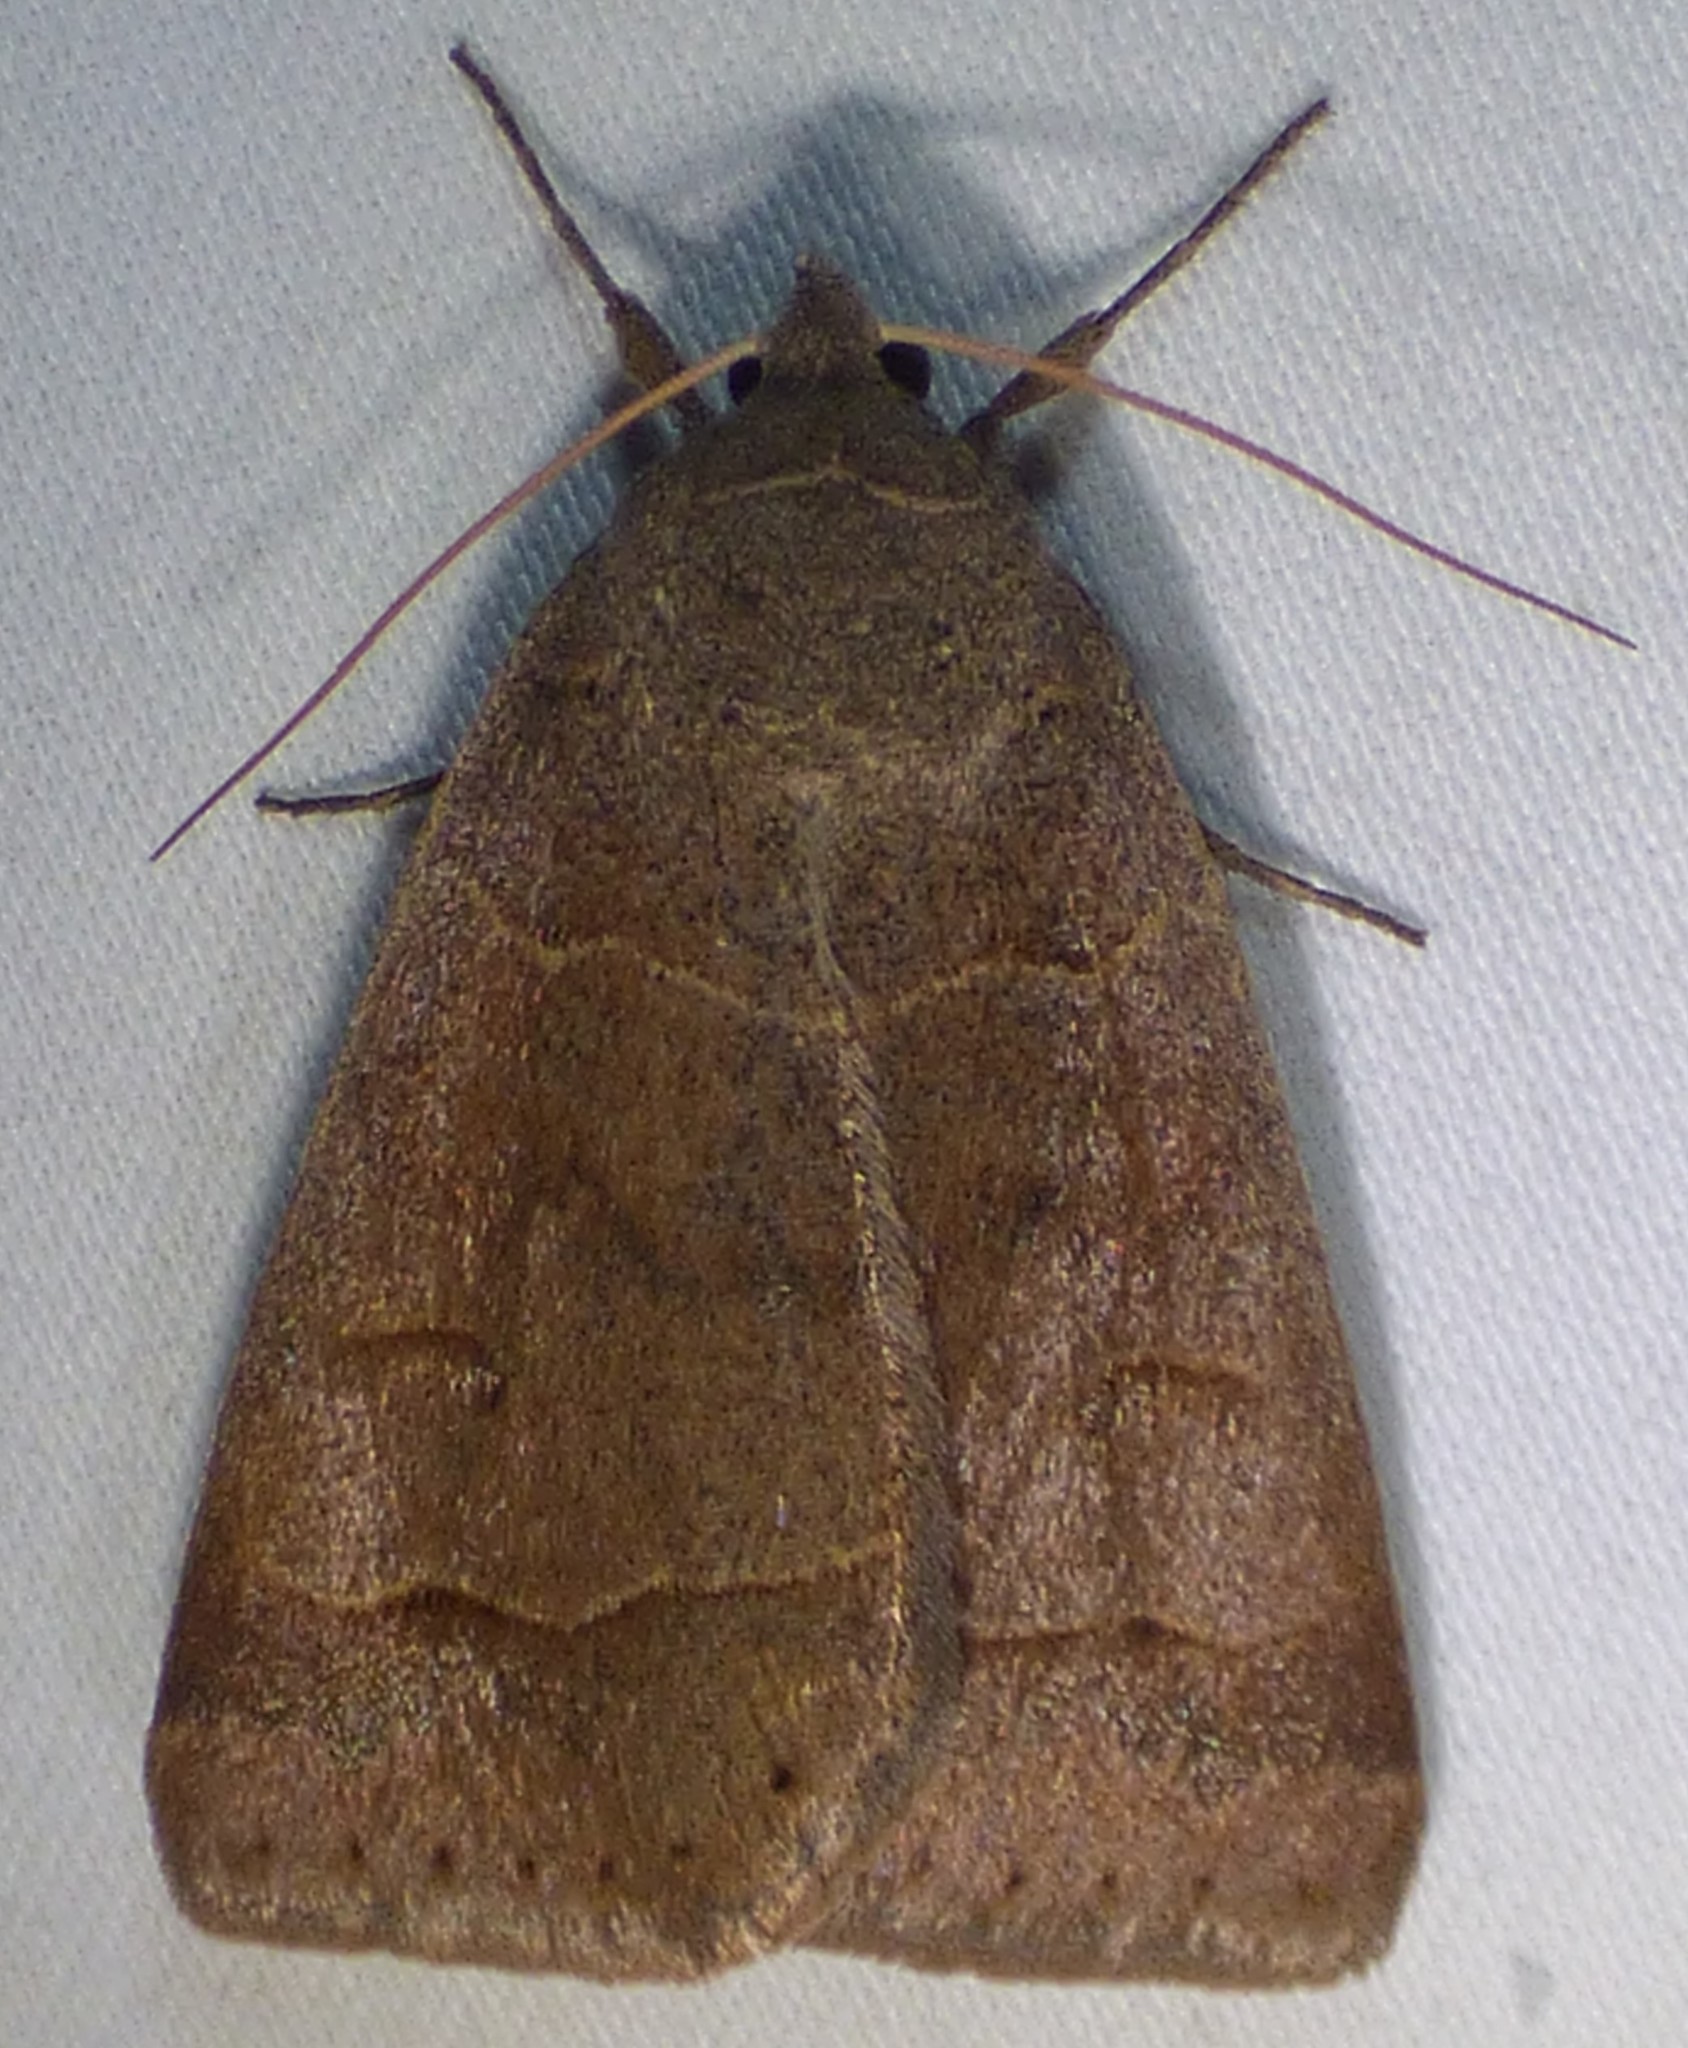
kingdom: Animalia
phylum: Arthropoda
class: Insecta
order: Lepidoptera
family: Erebidae
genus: Phoberia
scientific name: Phoberia atomaris
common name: Common oak moth
